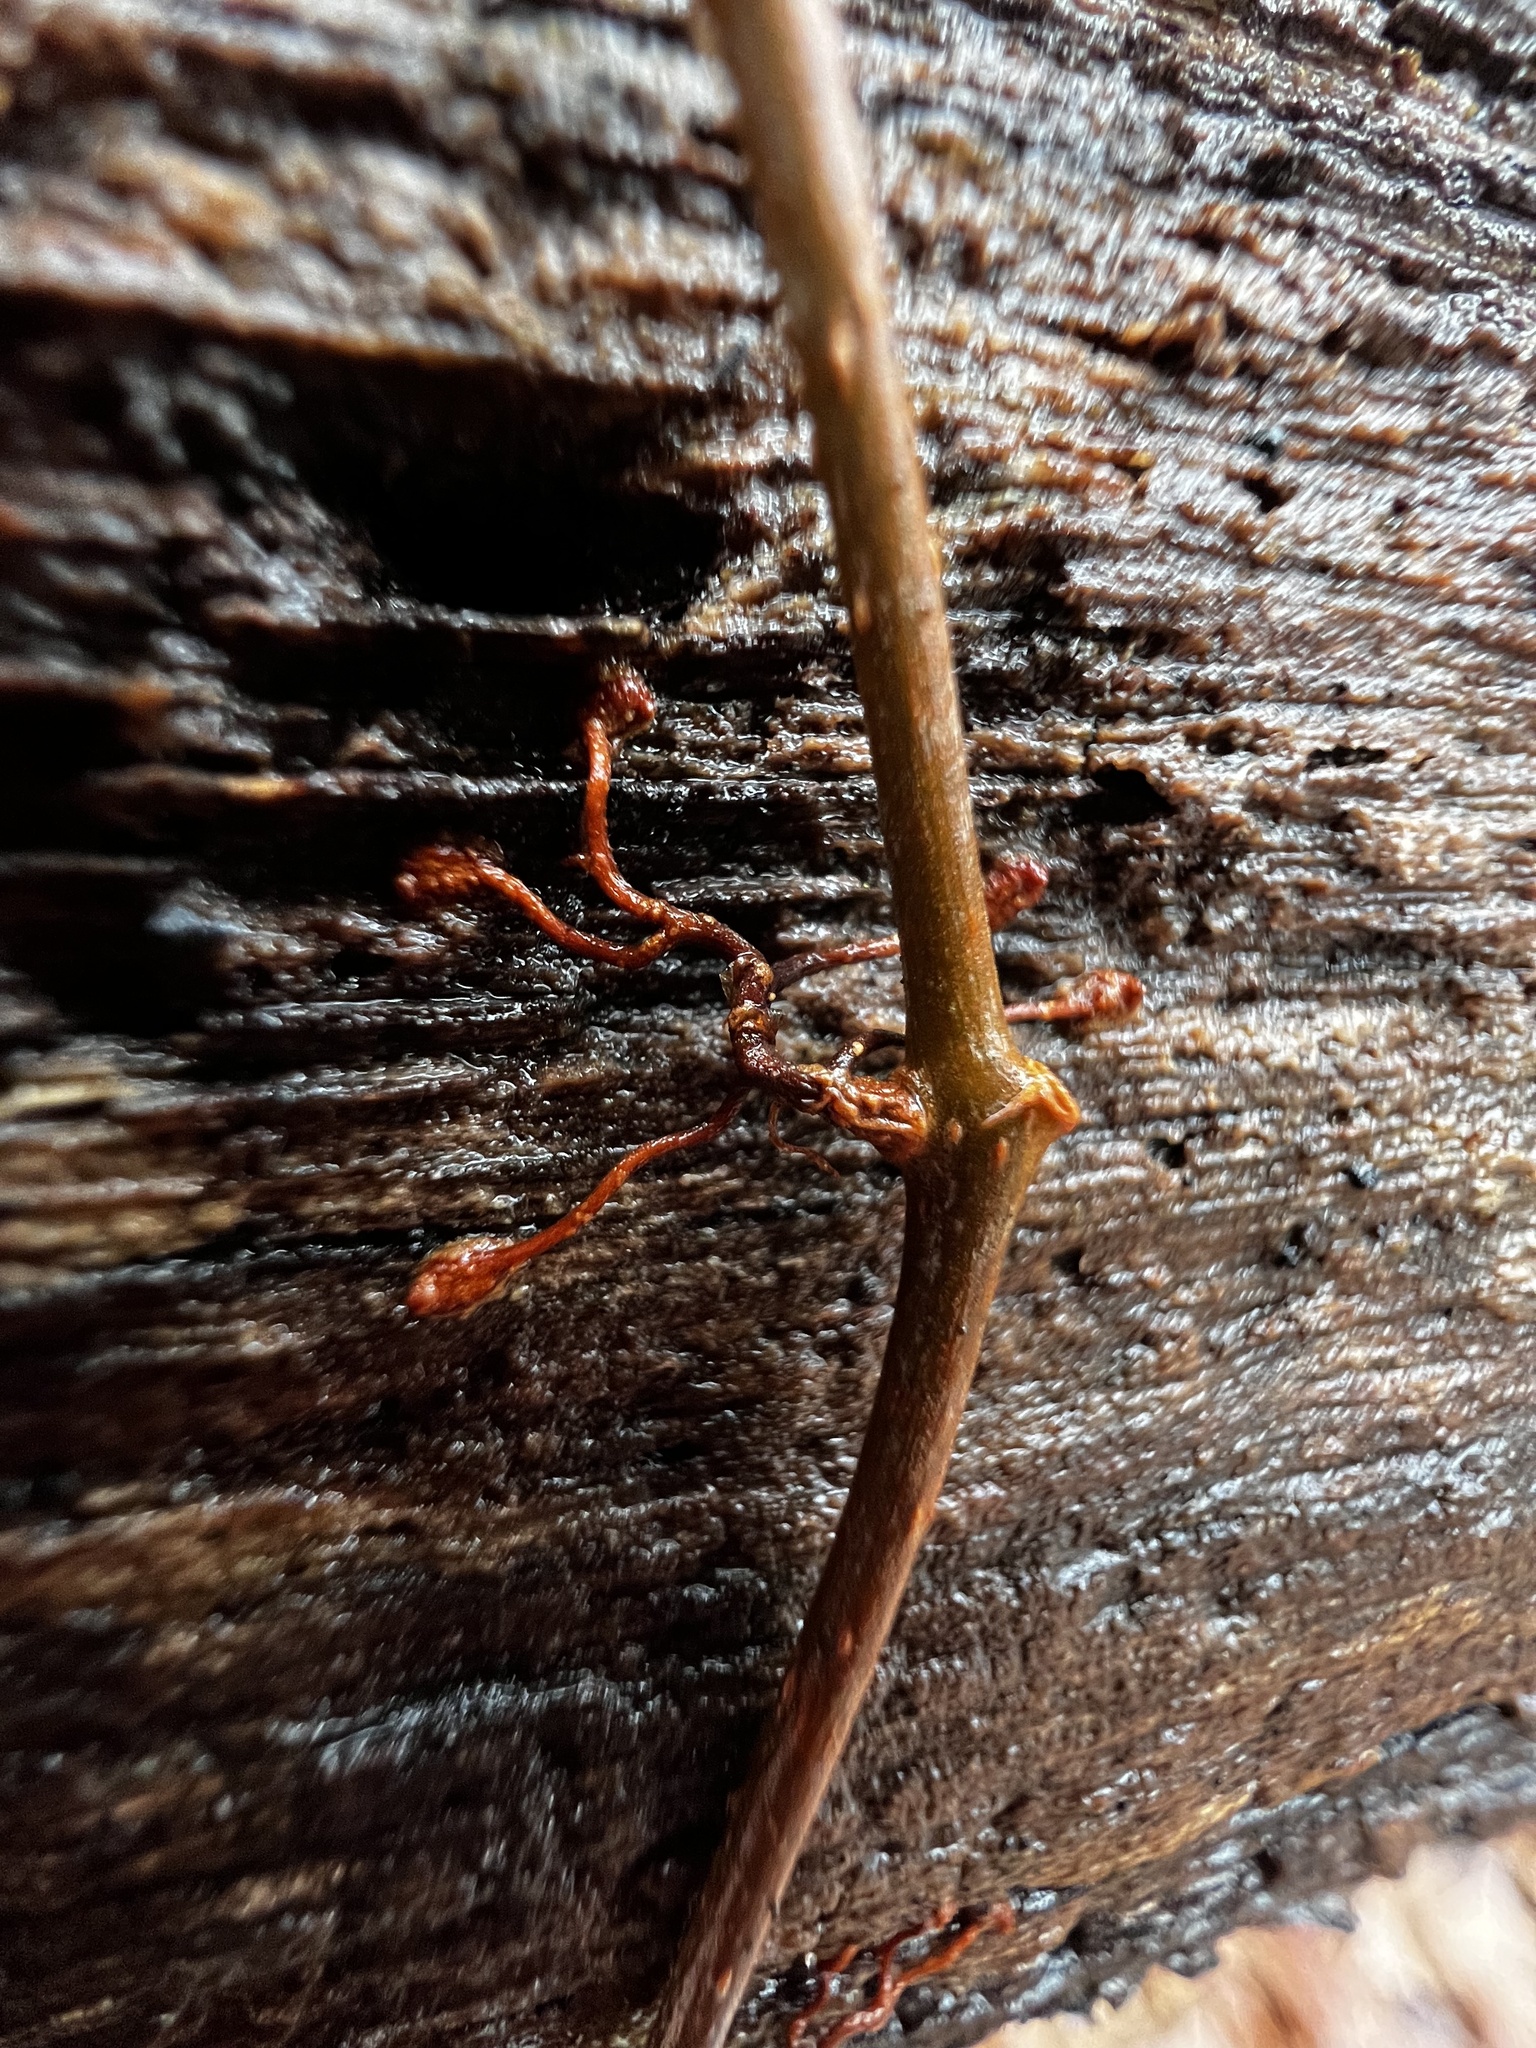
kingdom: Plantae
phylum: Tracheophyta
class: Magnoliopsida
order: Vitales
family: Vitaceae
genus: Parthenocissus
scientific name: Parthenocissus quinquefolia
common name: Virginia-creeper
